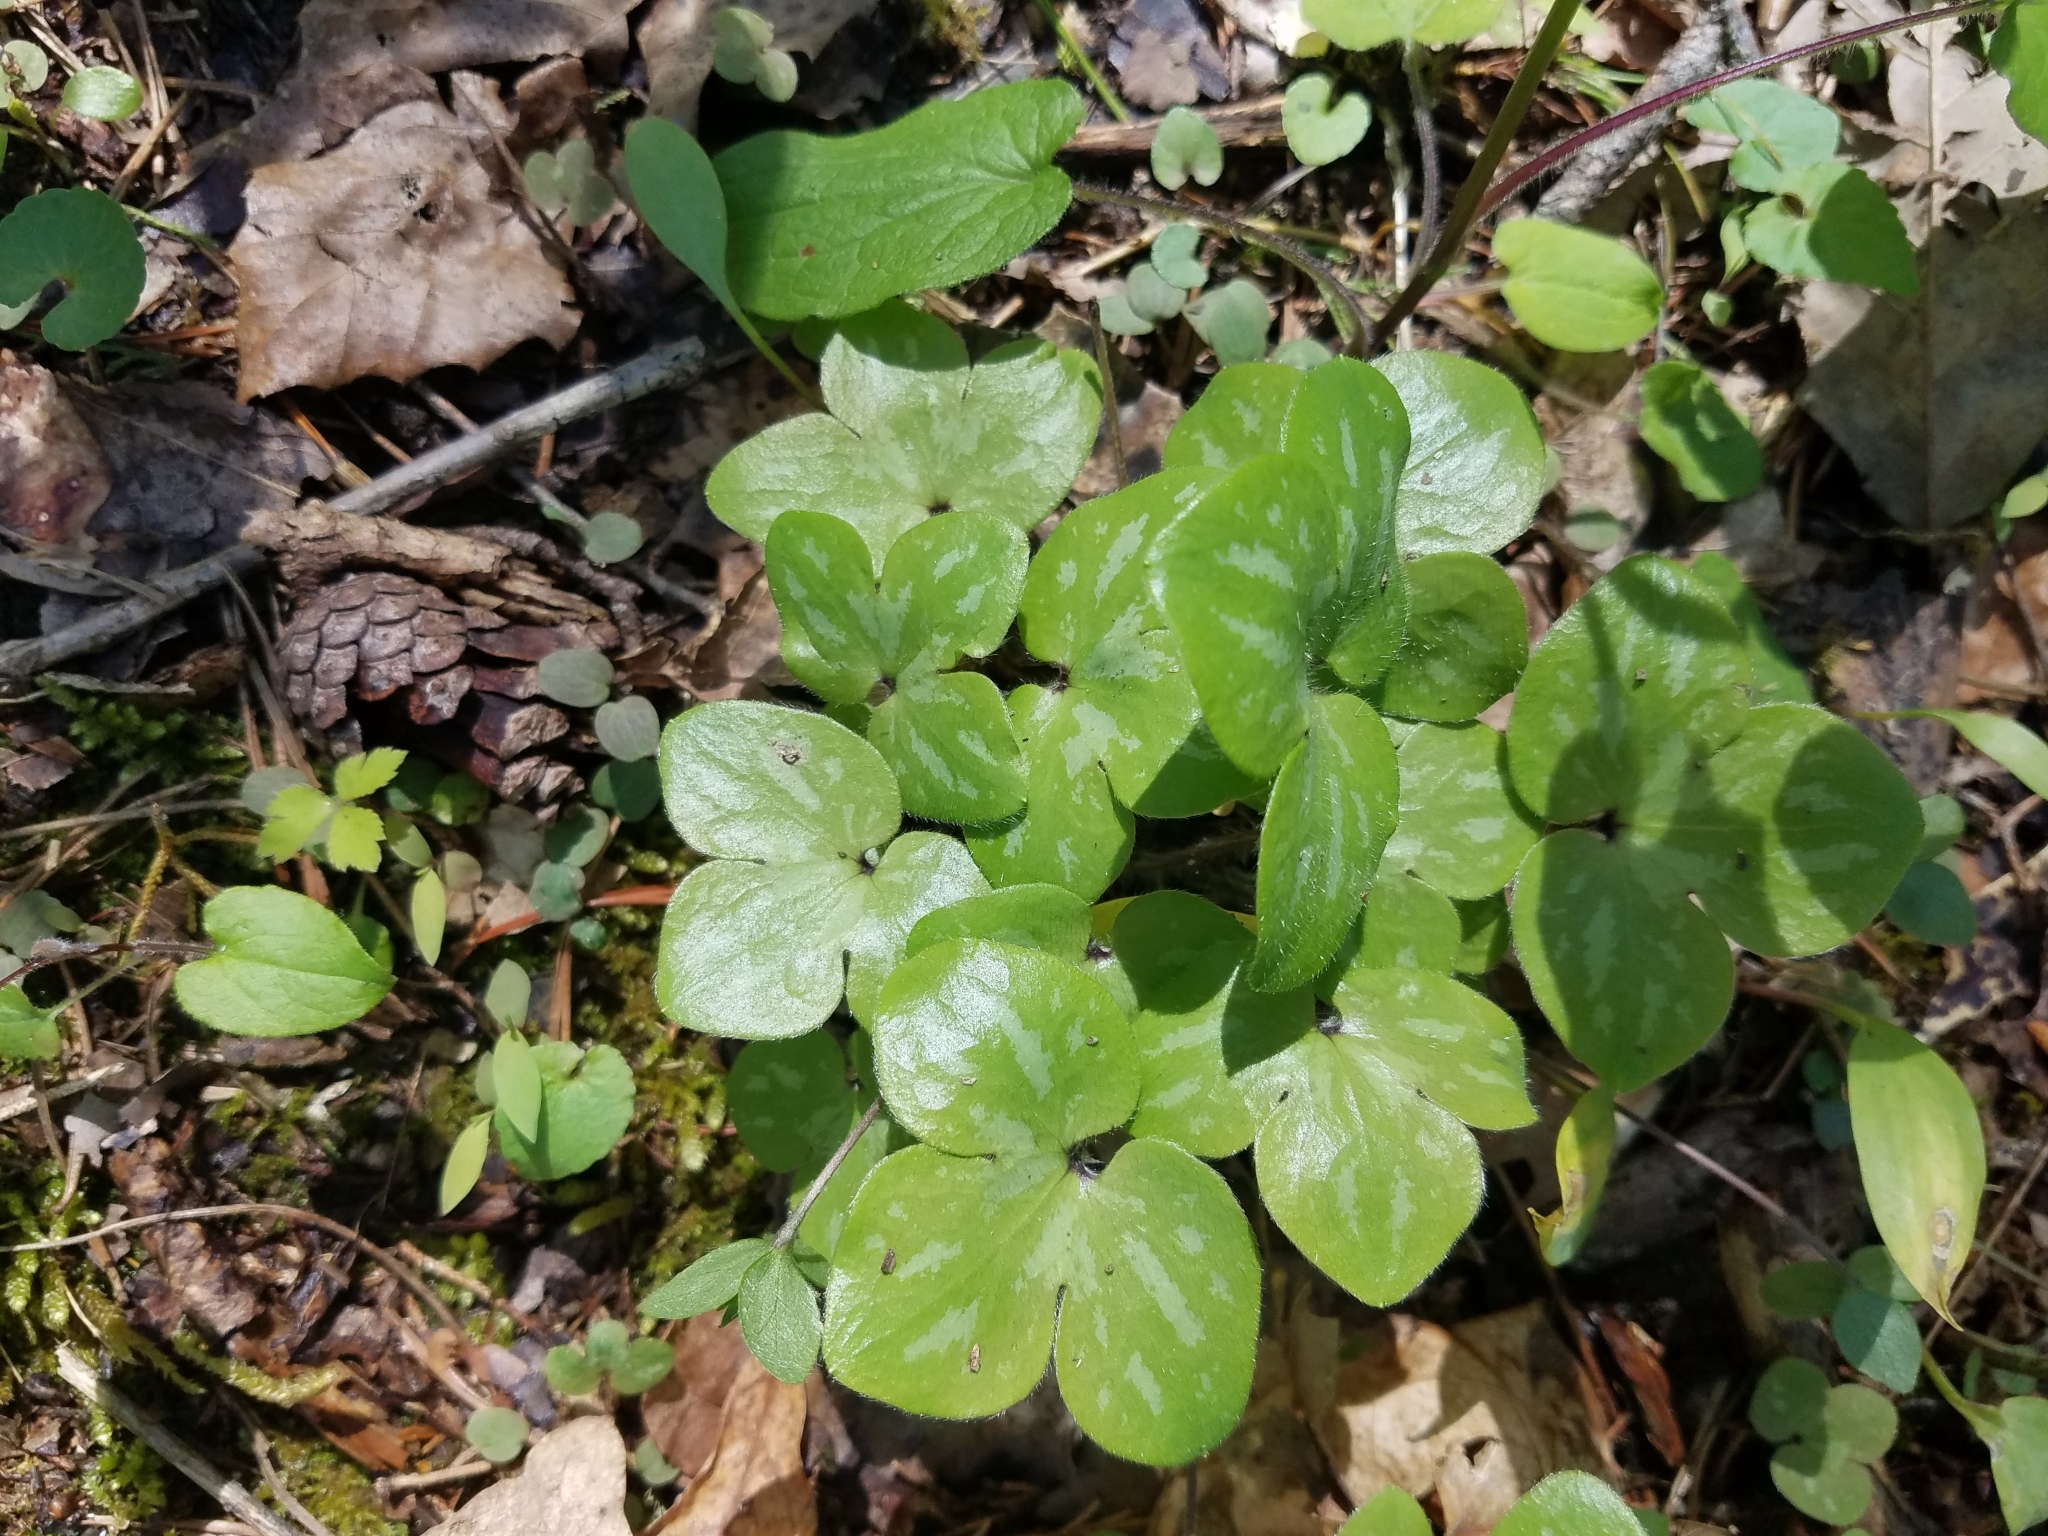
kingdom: Plantae
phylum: Tracheophyta
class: Magnoliopsida
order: Ranunculales
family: Ranunculaceae
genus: Hepatica
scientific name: Hepatica americana
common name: American hepatica
